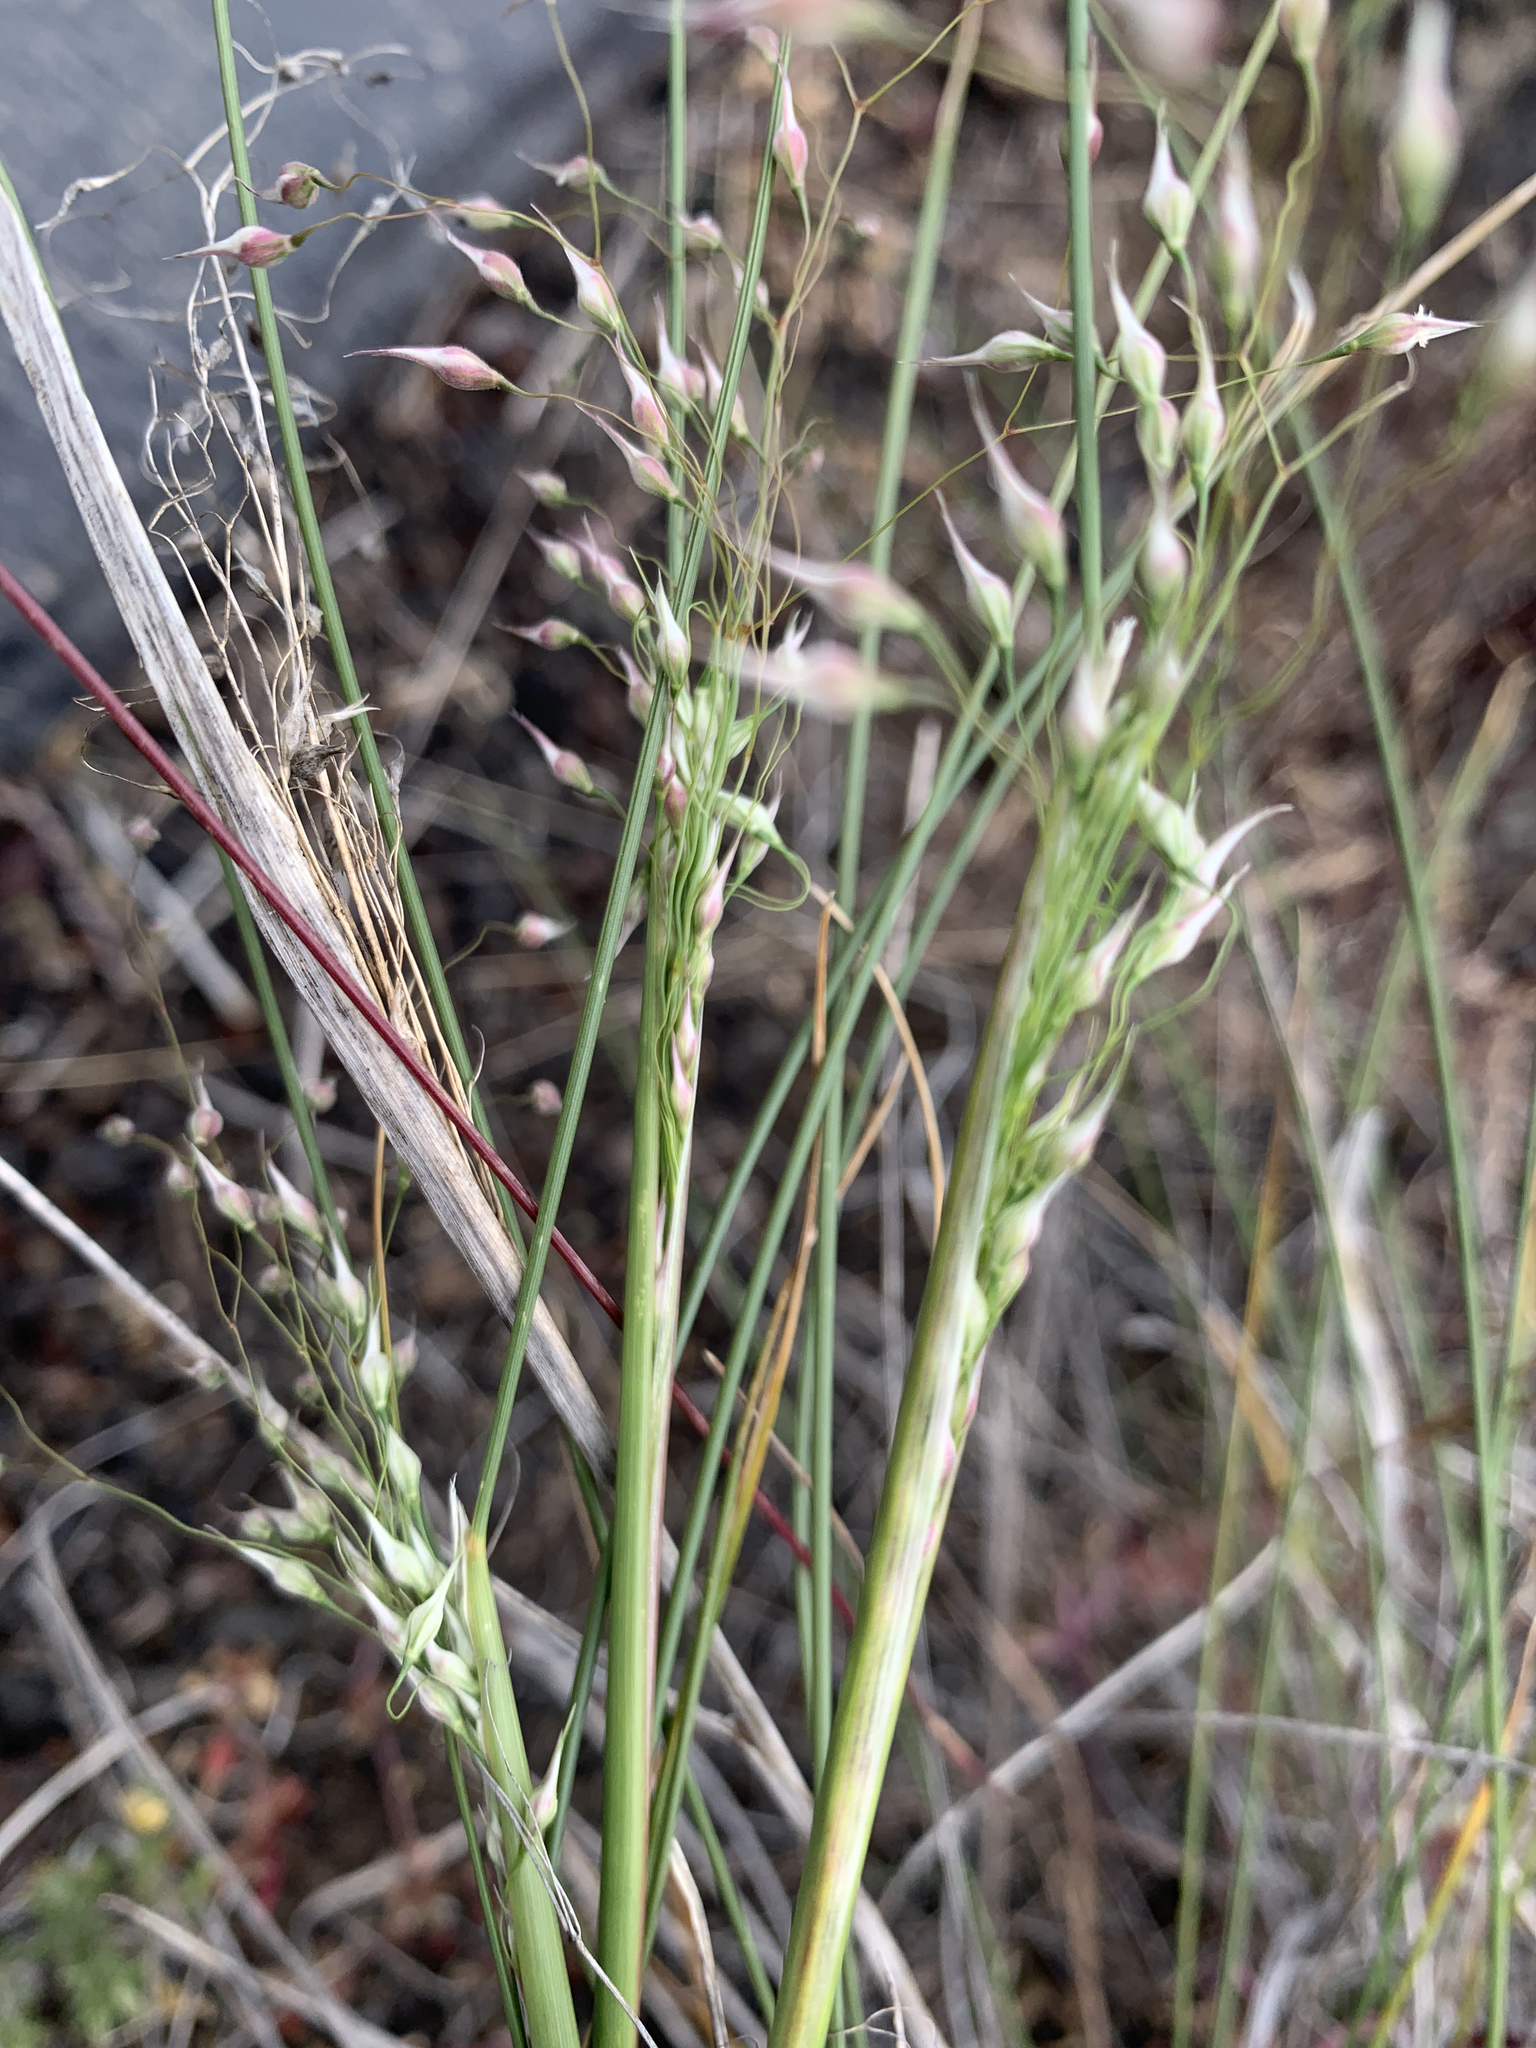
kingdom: Plantae
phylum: Tracheophyta
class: Liliopsida
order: Poales
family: Poaceae
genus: Eriocoma
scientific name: Eriocoma hymenoides
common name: Indian mountain ricegrass
